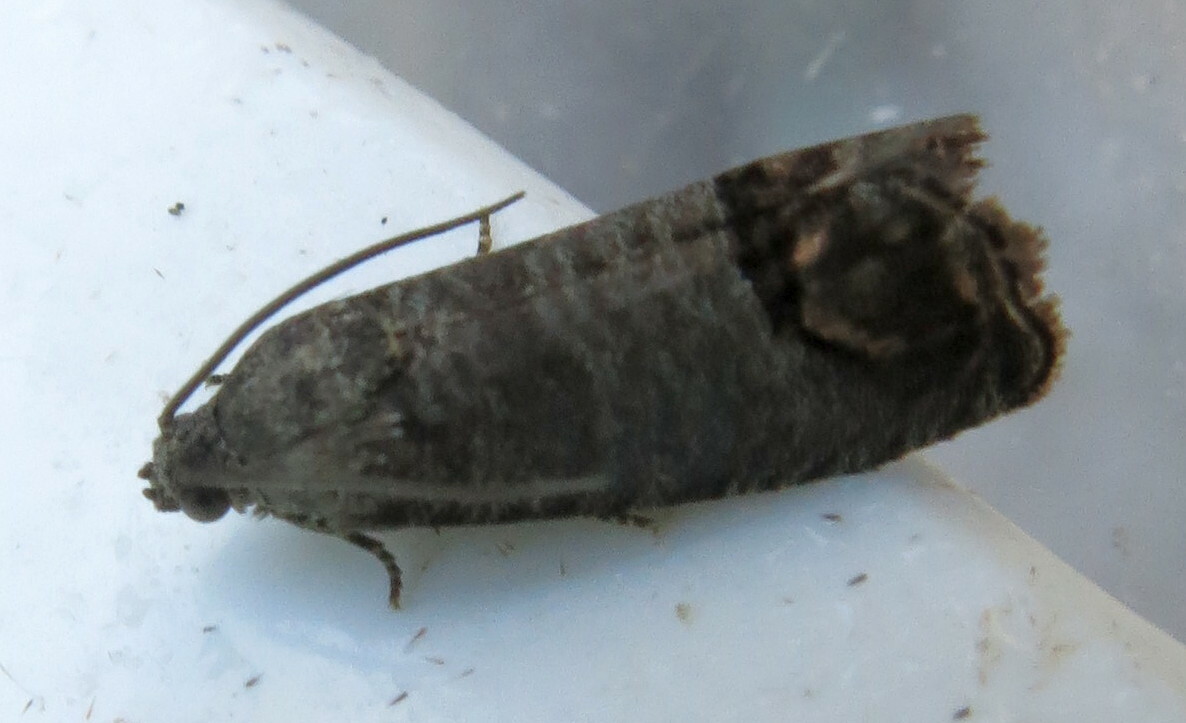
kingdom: Animalia
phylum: Arthropoda
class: Insecta
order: Lepidoptera
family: Tortricidae
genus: Cydia
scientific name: Cydia pomonella
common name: Codling moth
